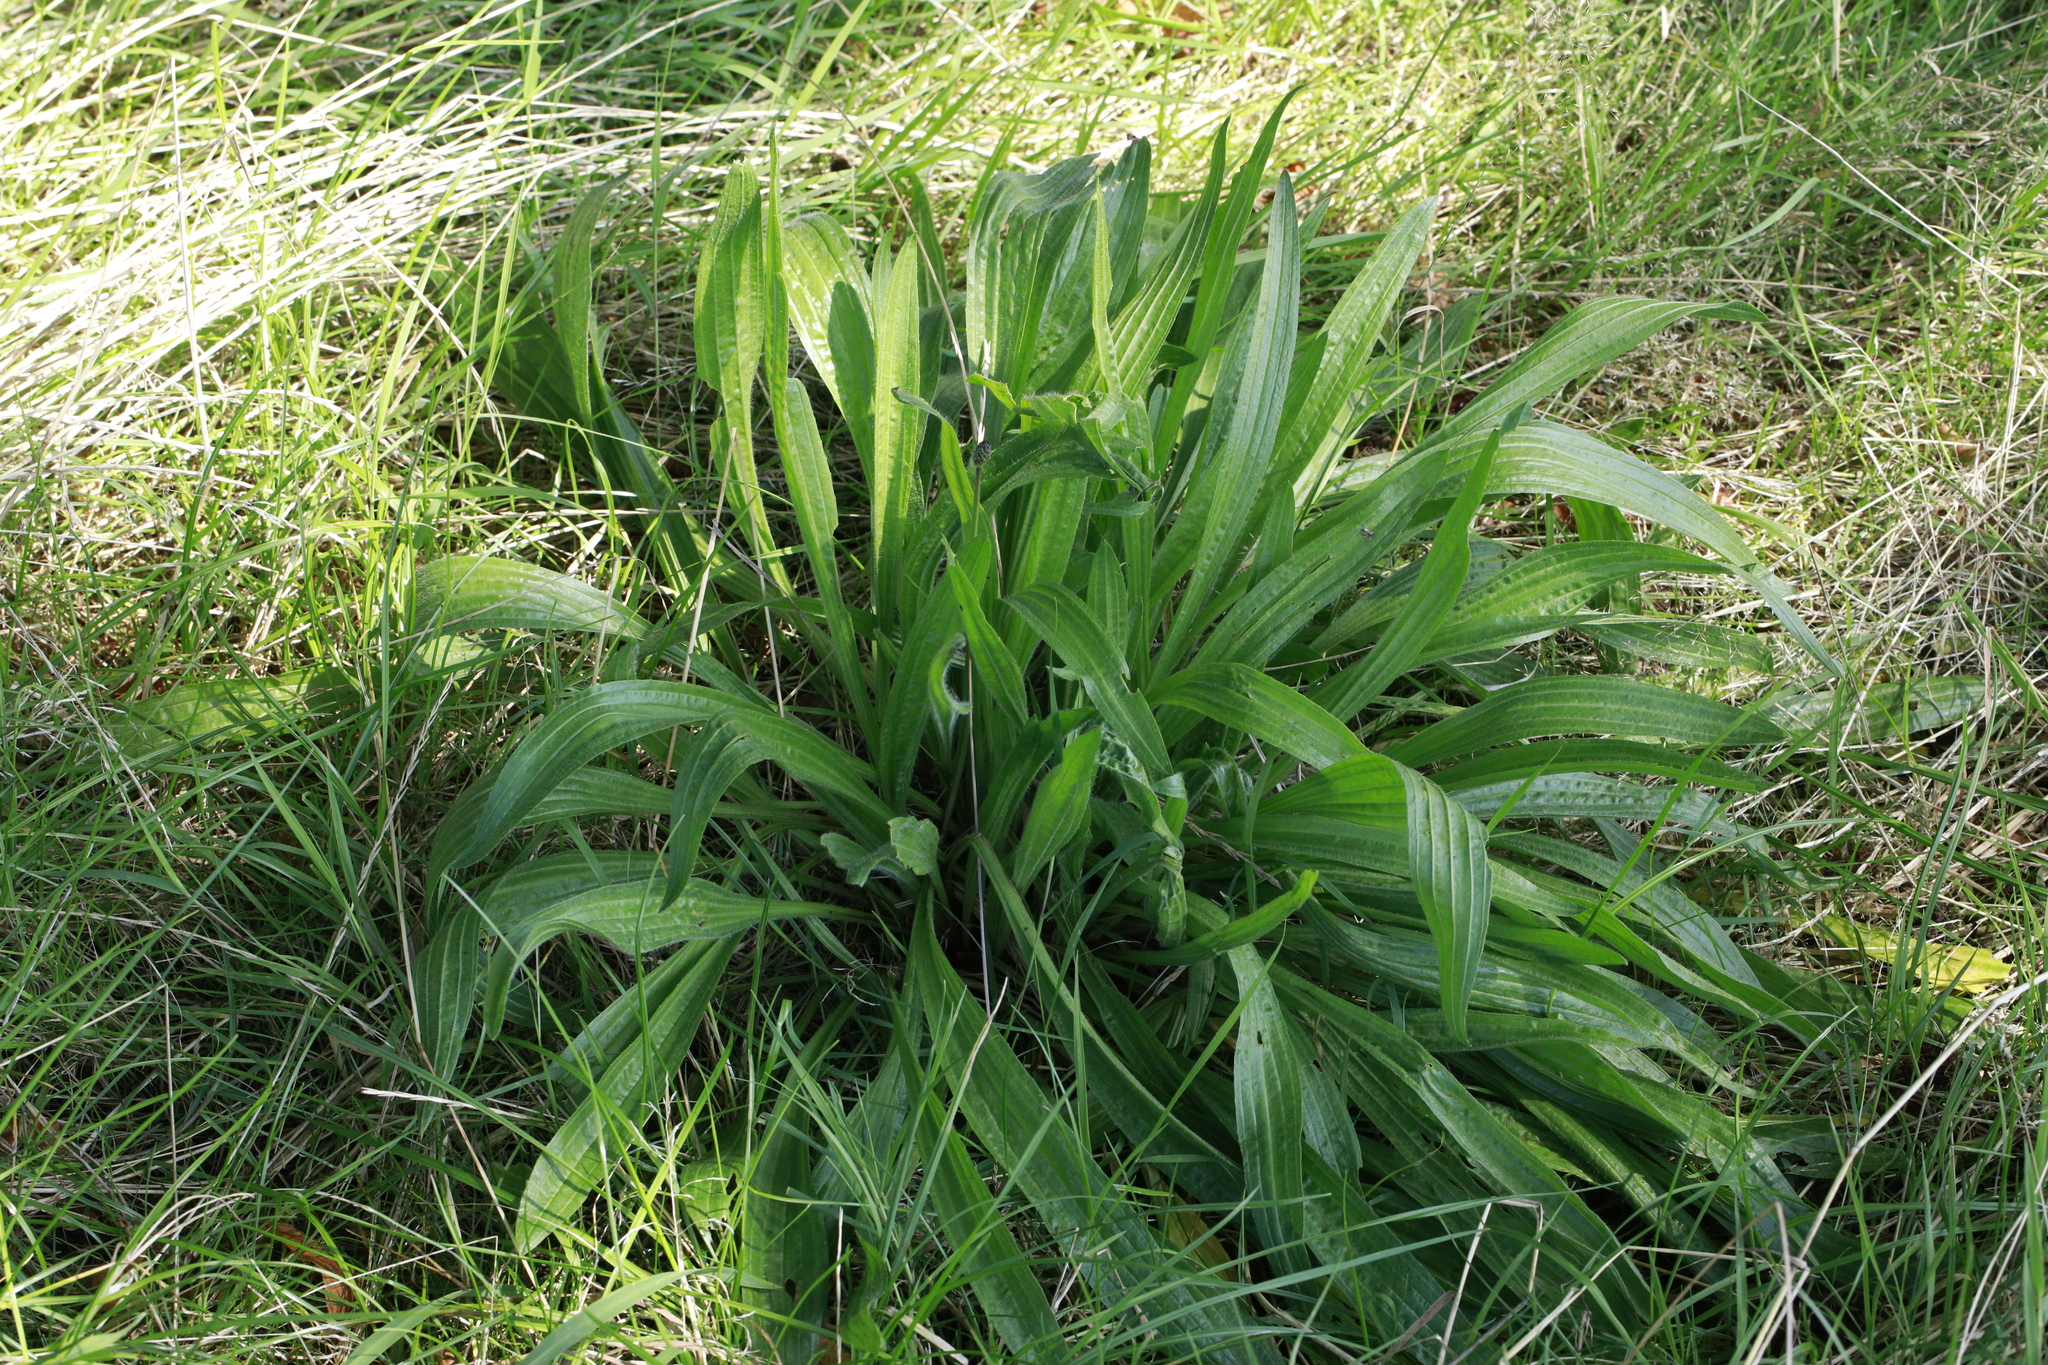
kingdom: Plantae
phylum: Tracheophyta
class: Magnoliopsida
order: Lamiales
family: Plantaginaceae
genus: Plantago
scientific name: Plantago lanceolata
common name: Ribwort plantain
